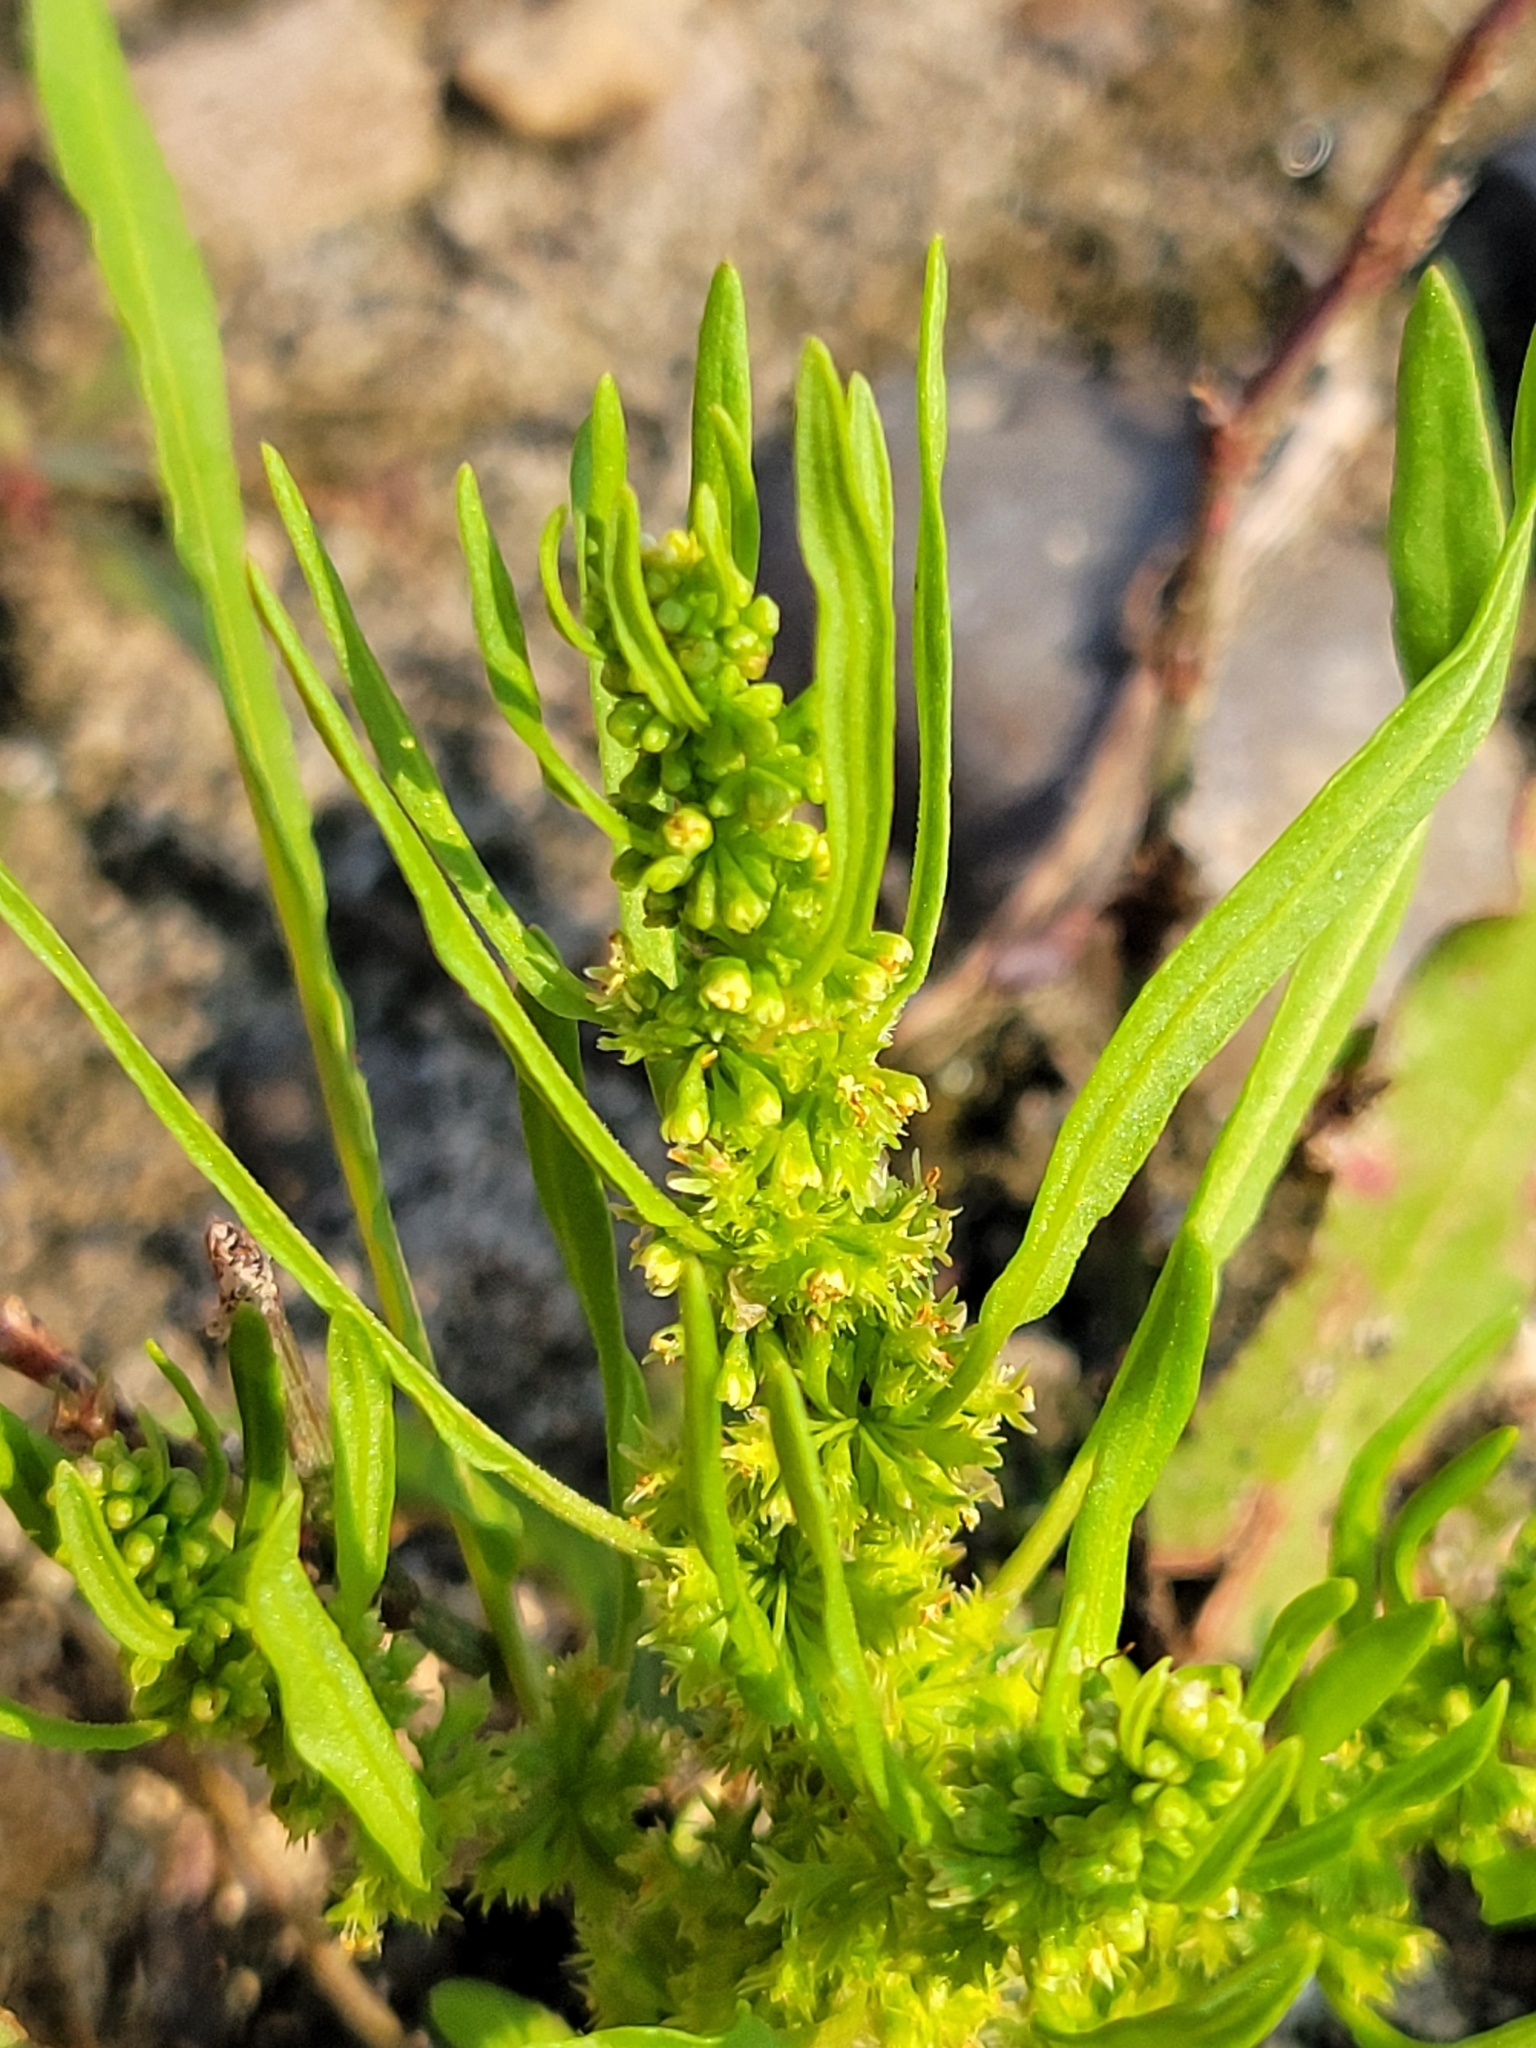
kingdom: Plantae
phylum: Tracheophyta
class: Magnoliopsida
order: Caryophyllales
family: Polygonaceae
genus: Rumex
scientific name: Rumex fueginus
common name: American golden dock
